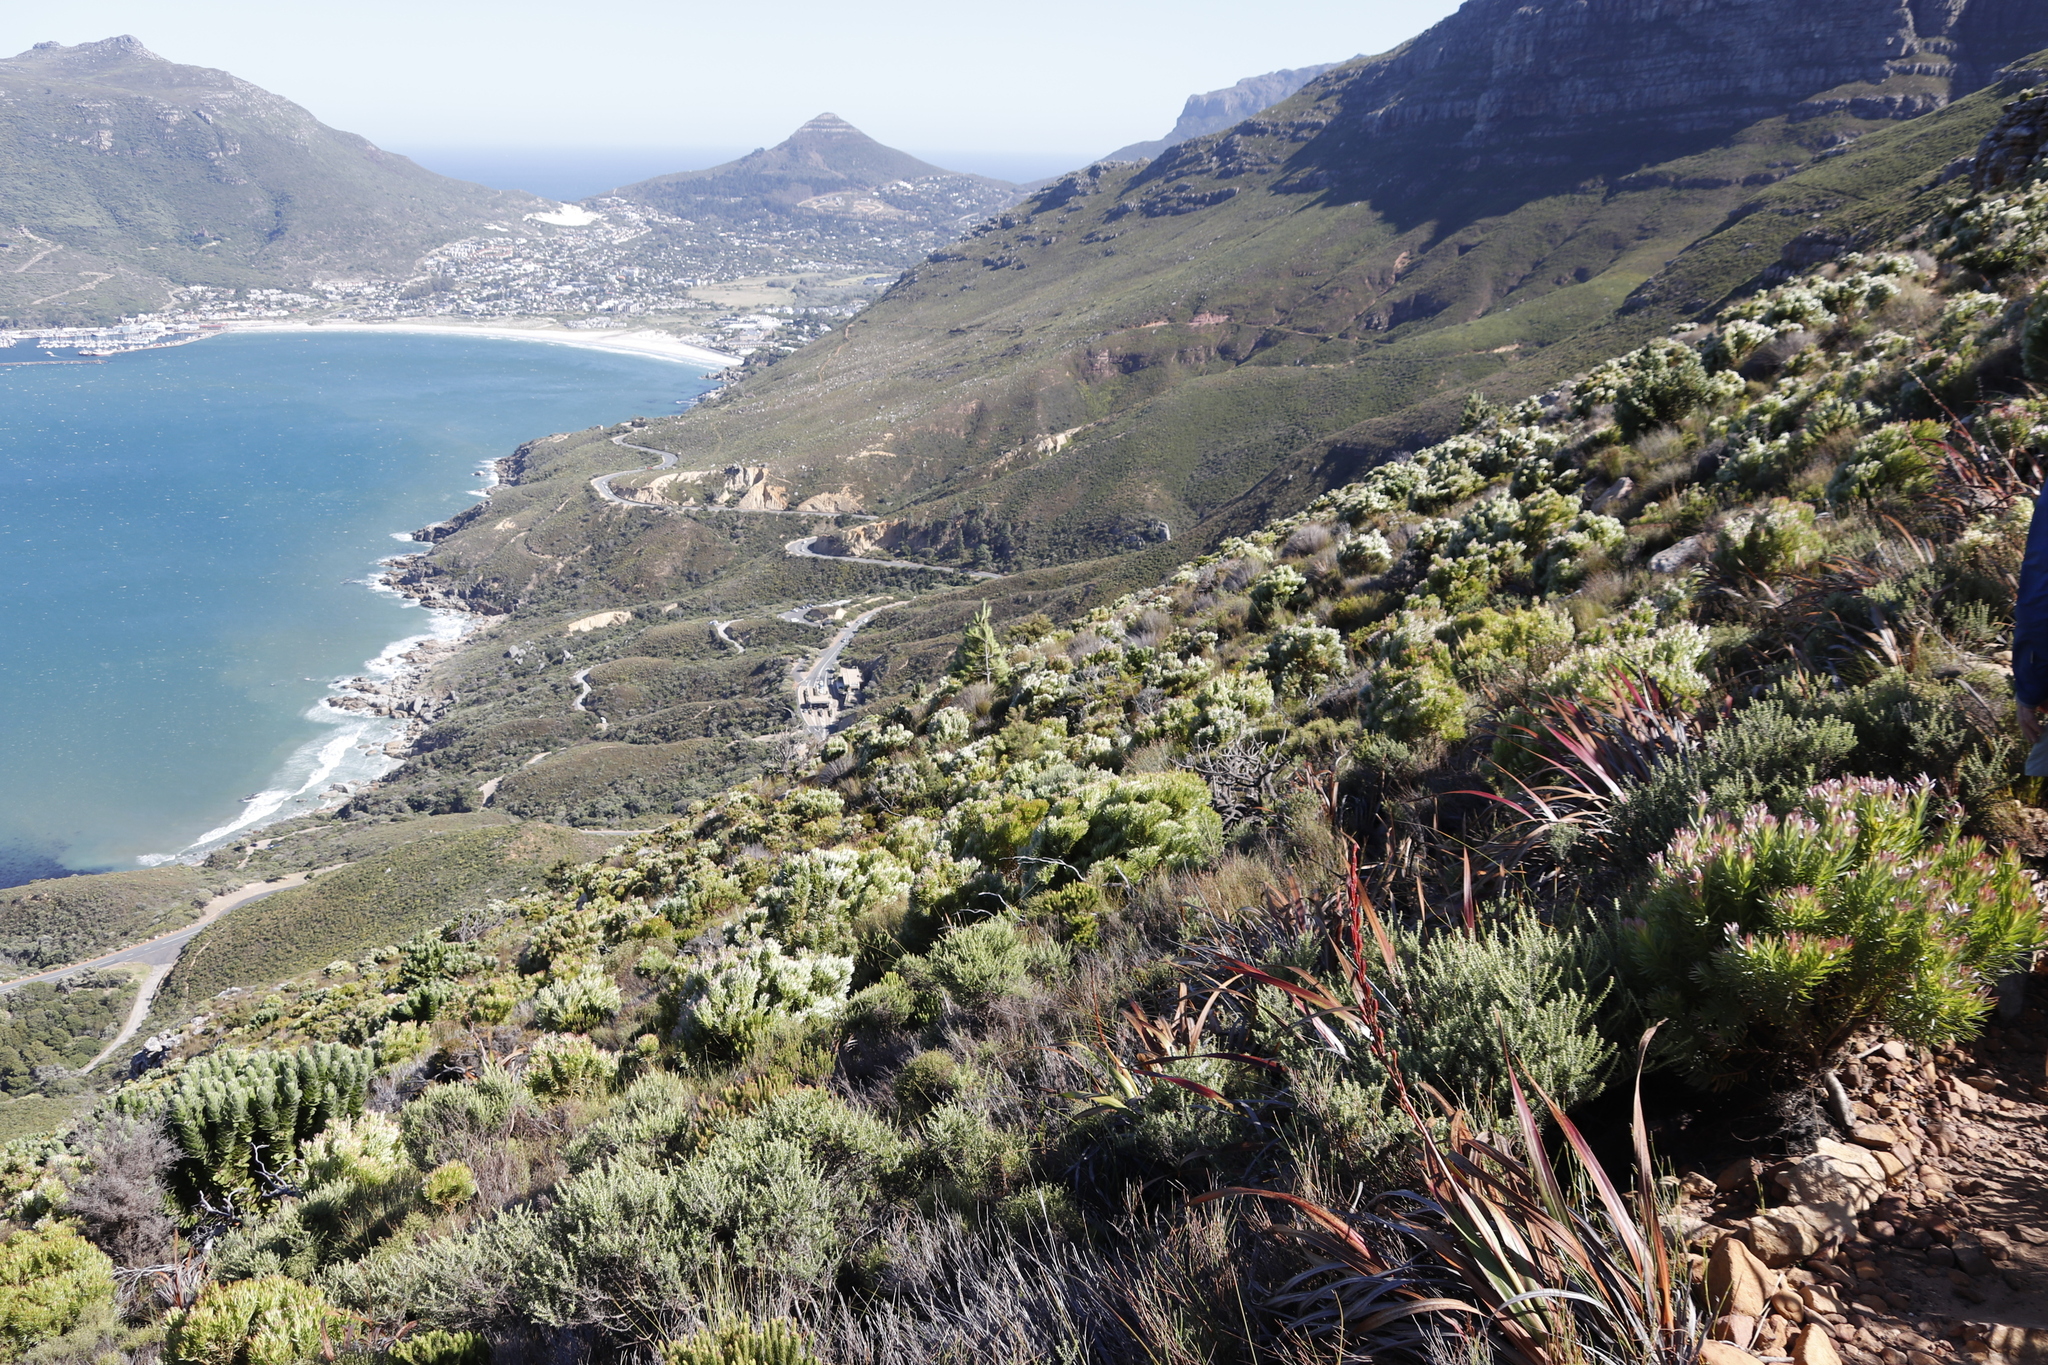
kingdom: Plantae
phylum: Tracheophyta
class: Magnoliopsida
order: Proteales
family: Proteaceae
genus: Leucospermum
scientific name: Leucospermum conocarpodendron
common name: Tree pincushion
